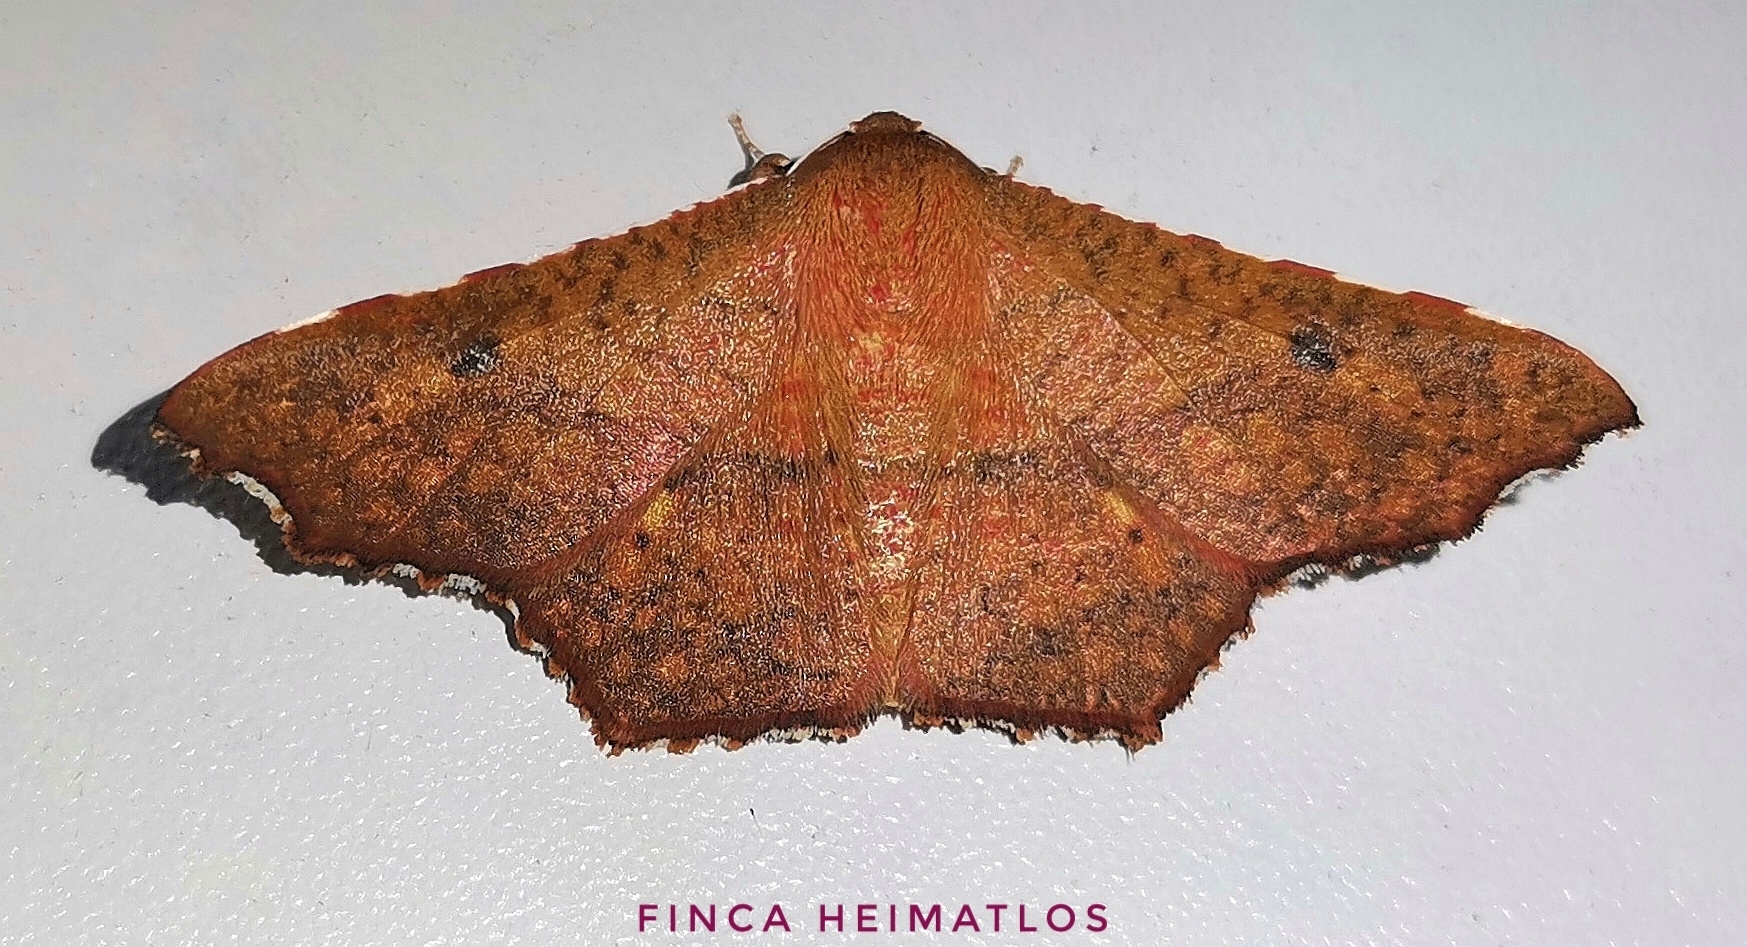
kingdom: Animalia
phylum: Arthropoda
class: Insecta
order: Lepidoptera
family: Thyrididae
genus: Rhodogonia
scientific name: Rhodogonia miniata
